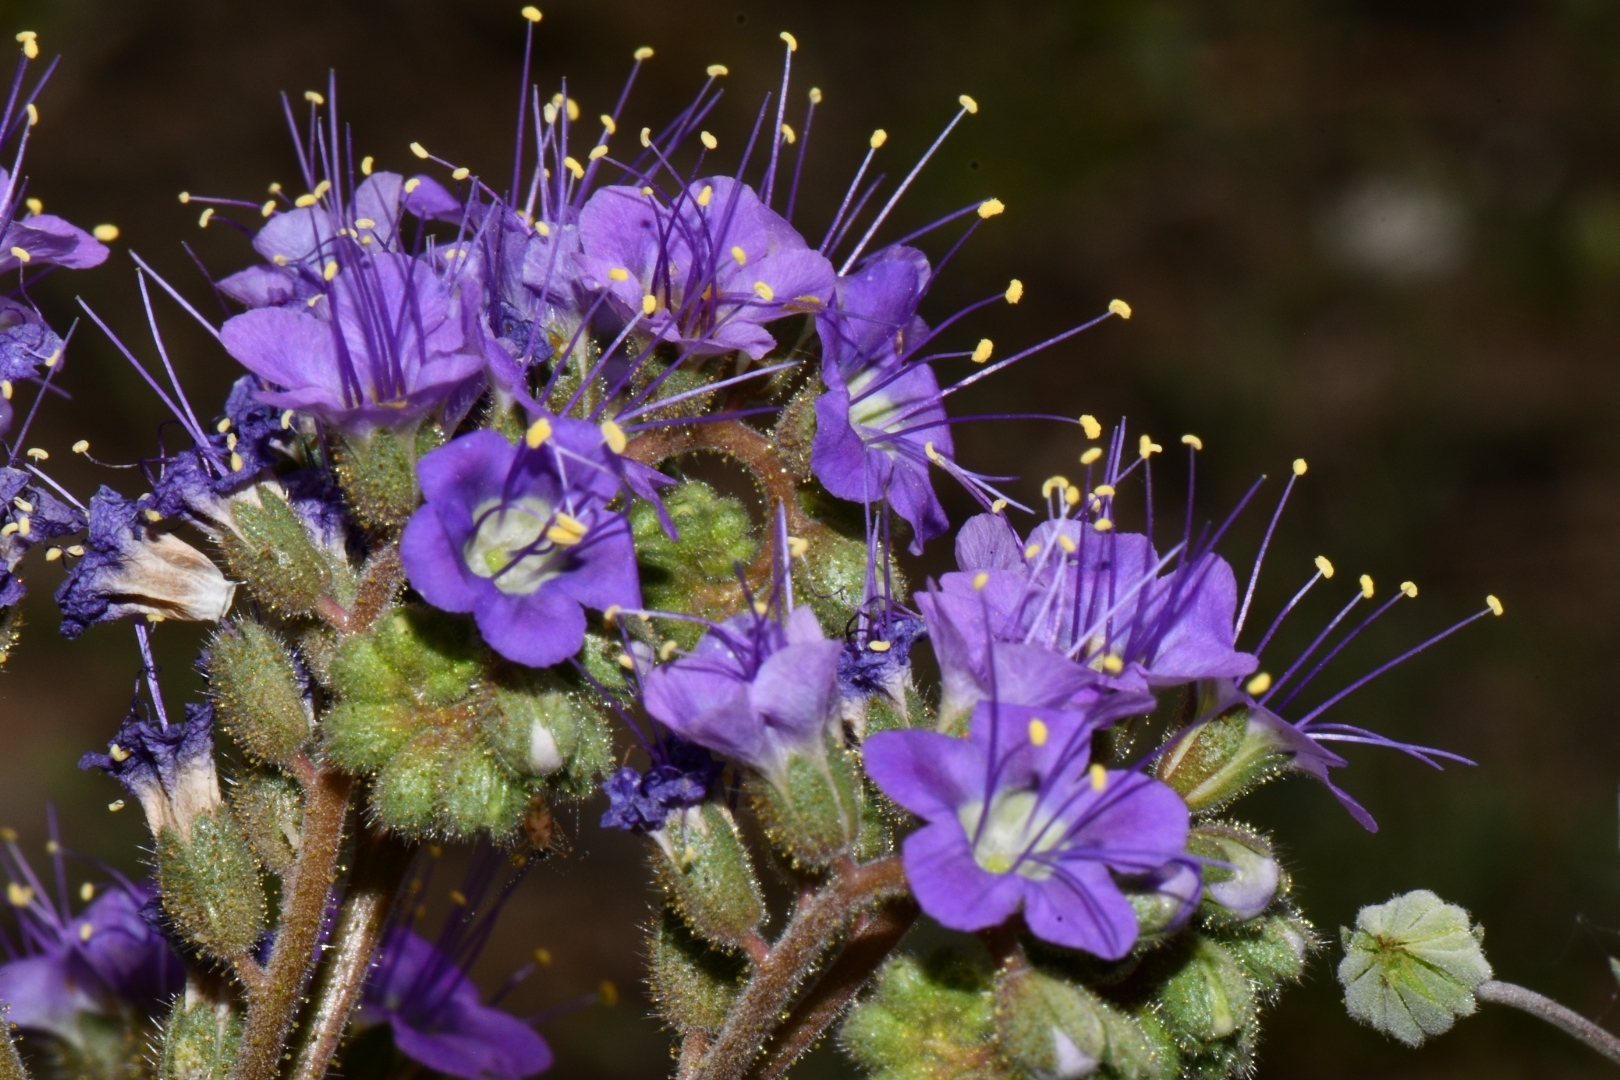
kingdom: Plantae
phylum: Tracheophyta
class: Magnoliopsida
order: Boraginales
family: Hydrophyllaceae
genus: Phacelia
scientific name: Phacelia crenulata
